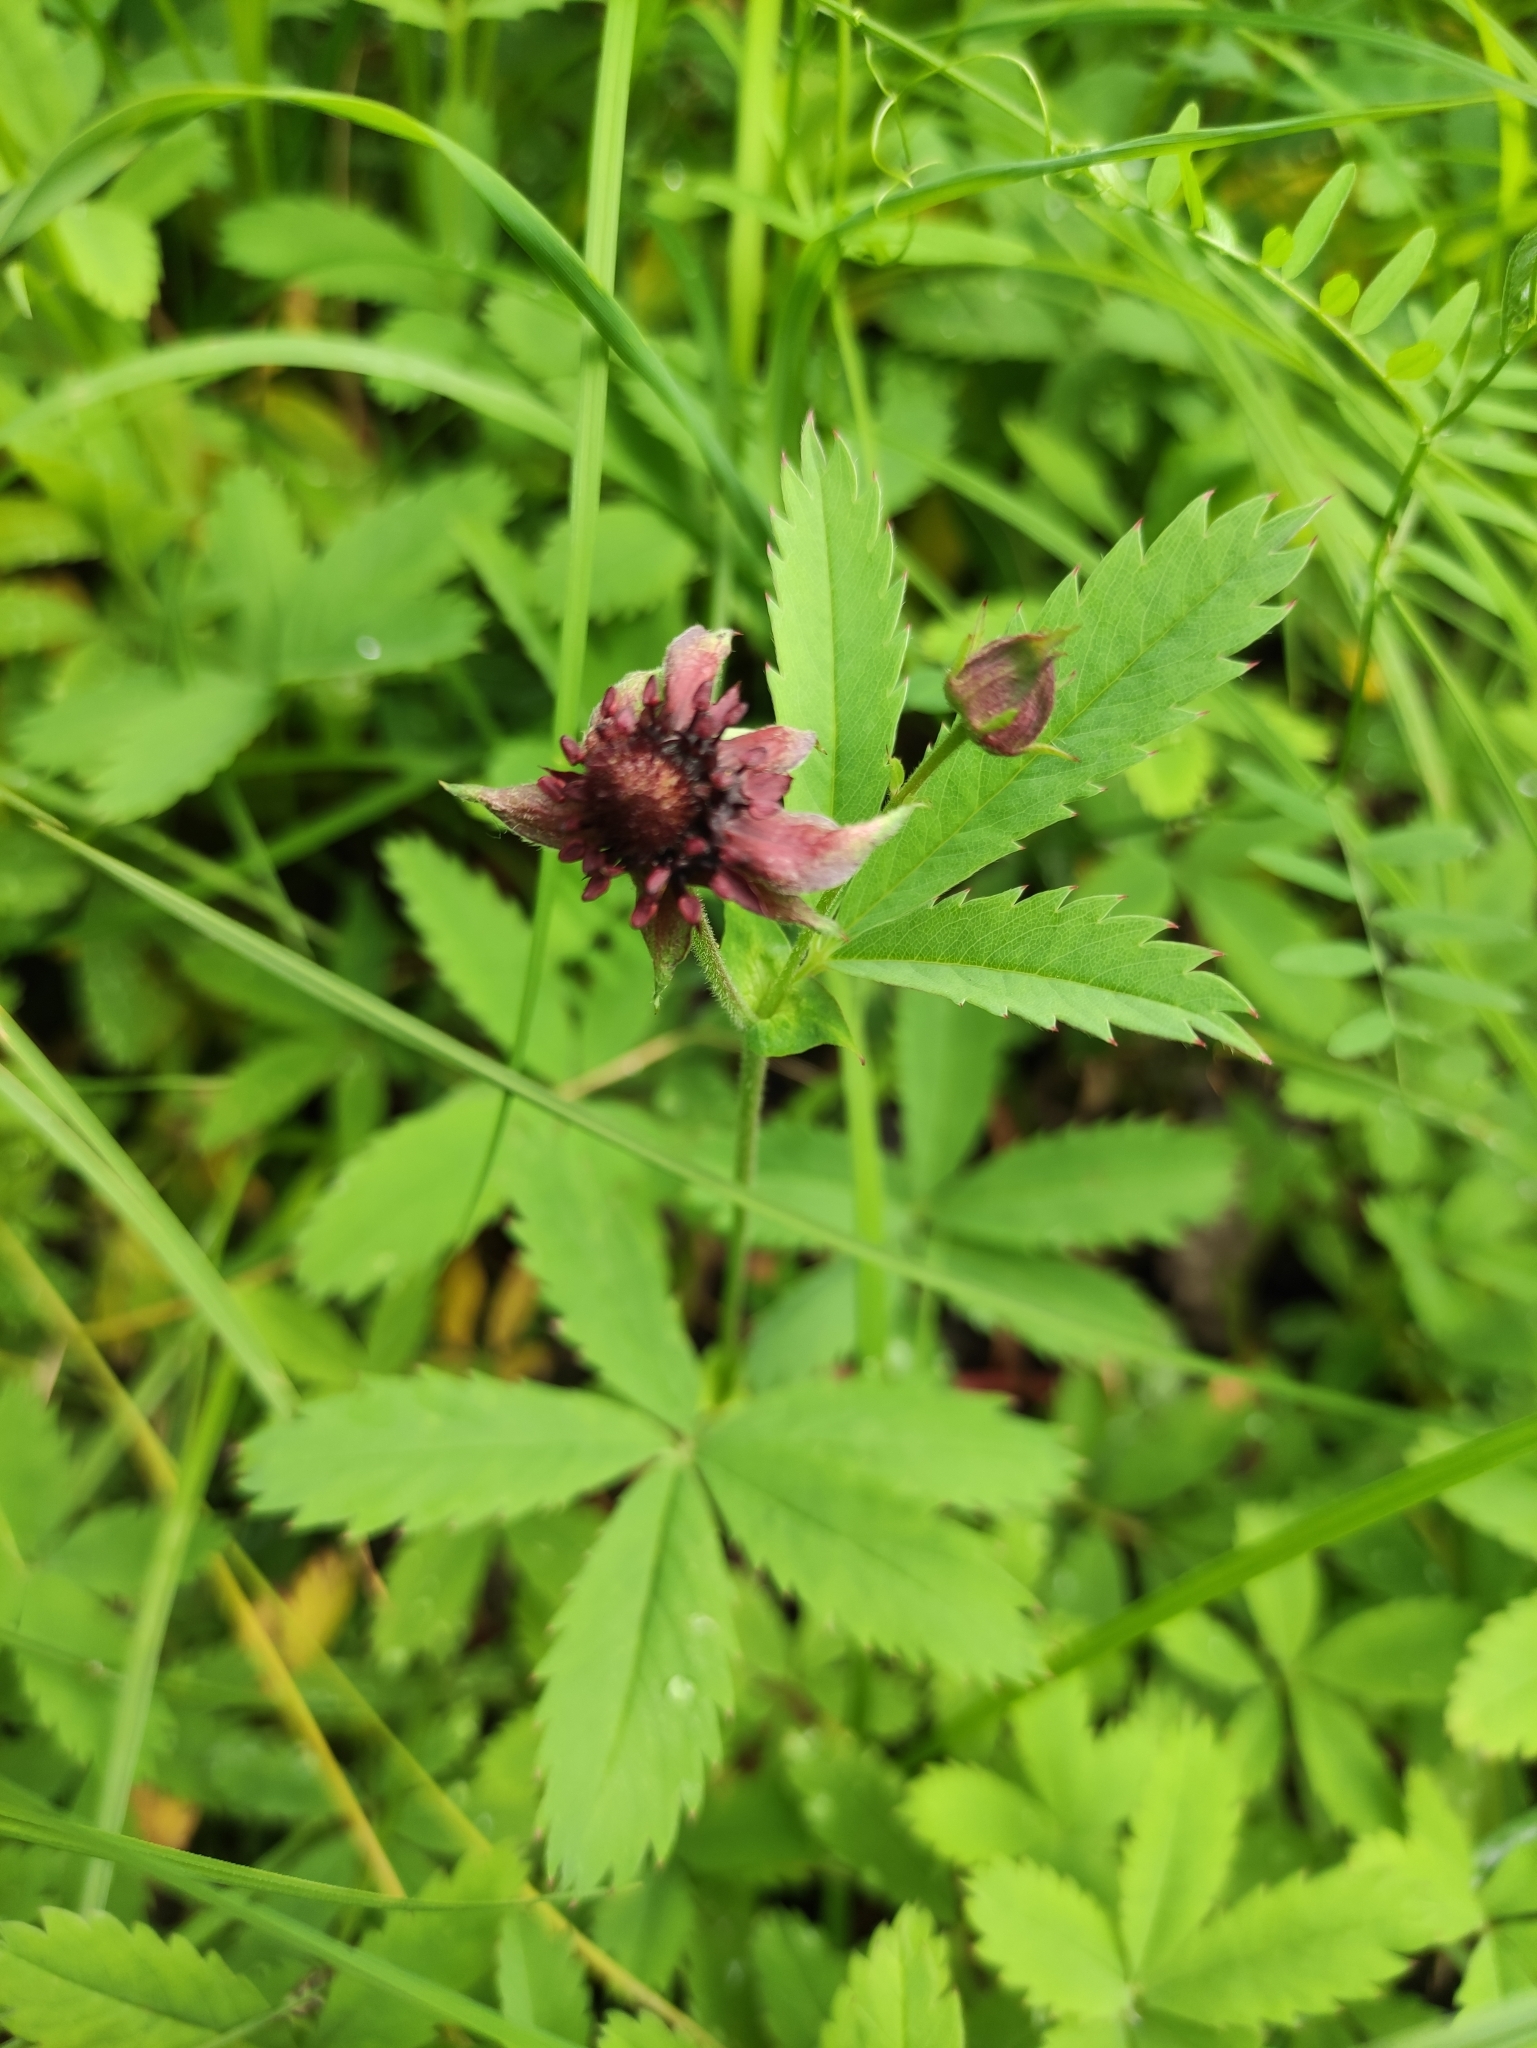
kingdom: Plantae
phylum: Tracheophyta
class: Magnoliopsida
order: Rosales
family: Rosaceae
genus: Comarum
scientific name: Comarum palustre
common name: Marsh cinquefoil
